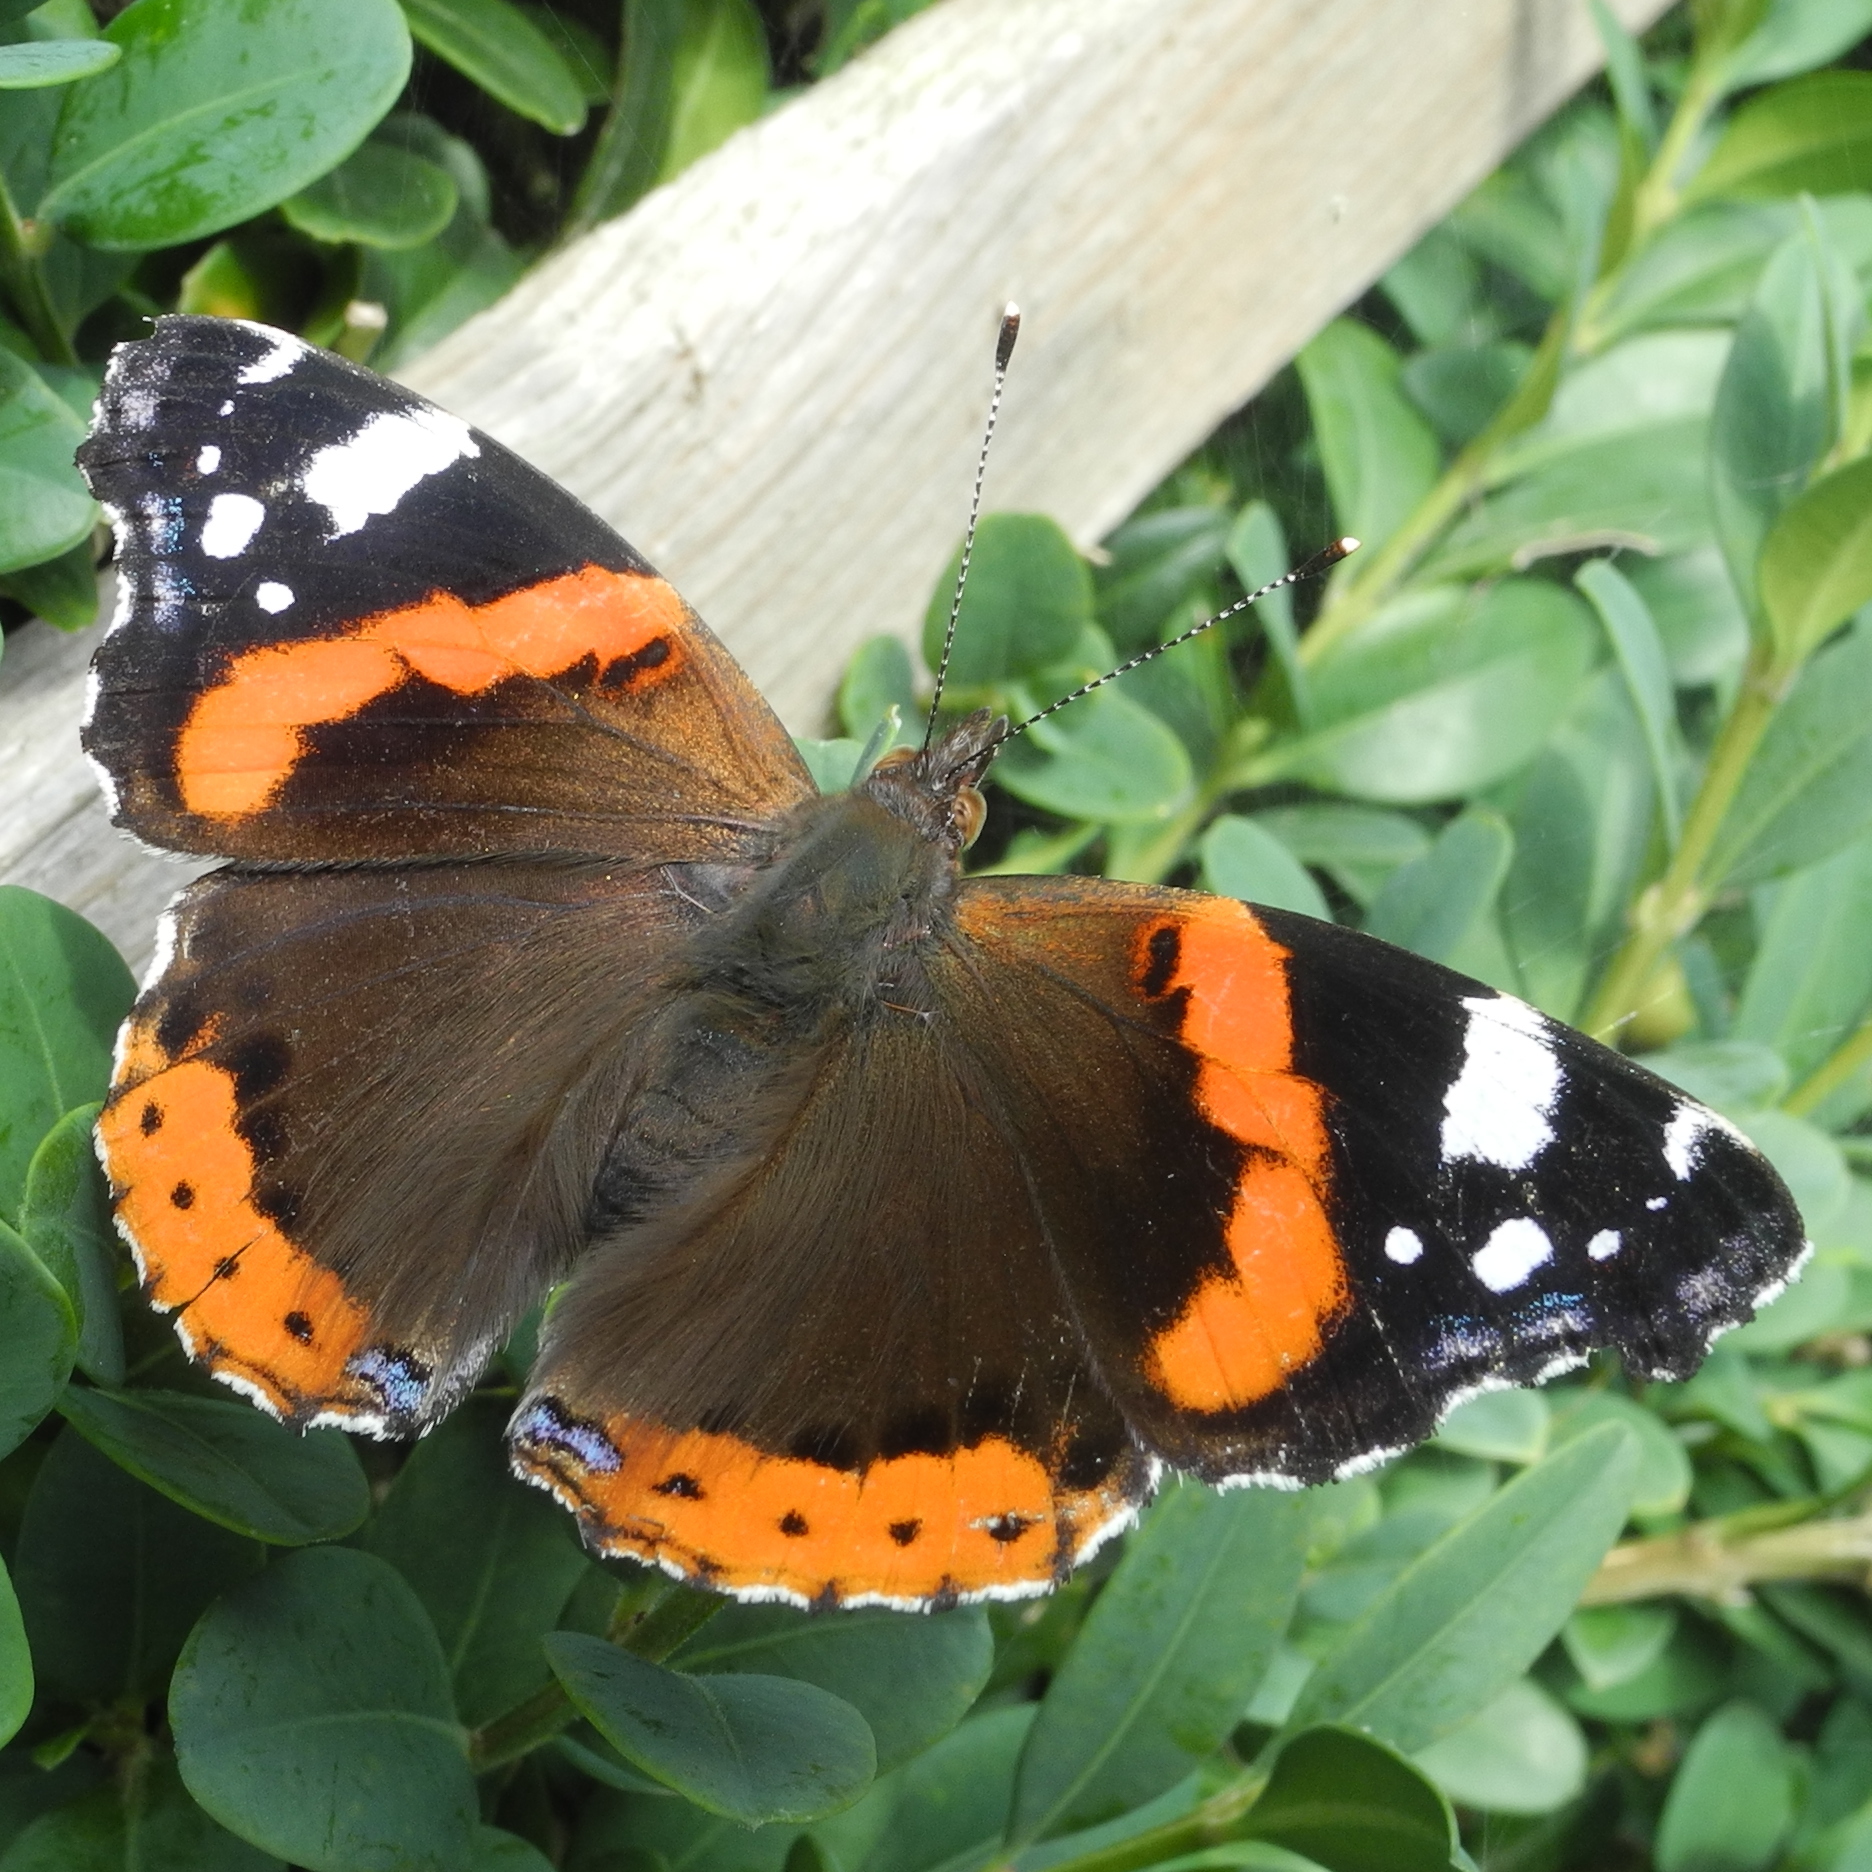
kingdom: Animalia
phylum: Arthropoda
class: Insecta
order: Lepidoptera
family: Nymphalidae
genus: Vanessa
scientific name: Vanessa atalanta
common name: Red admiral
